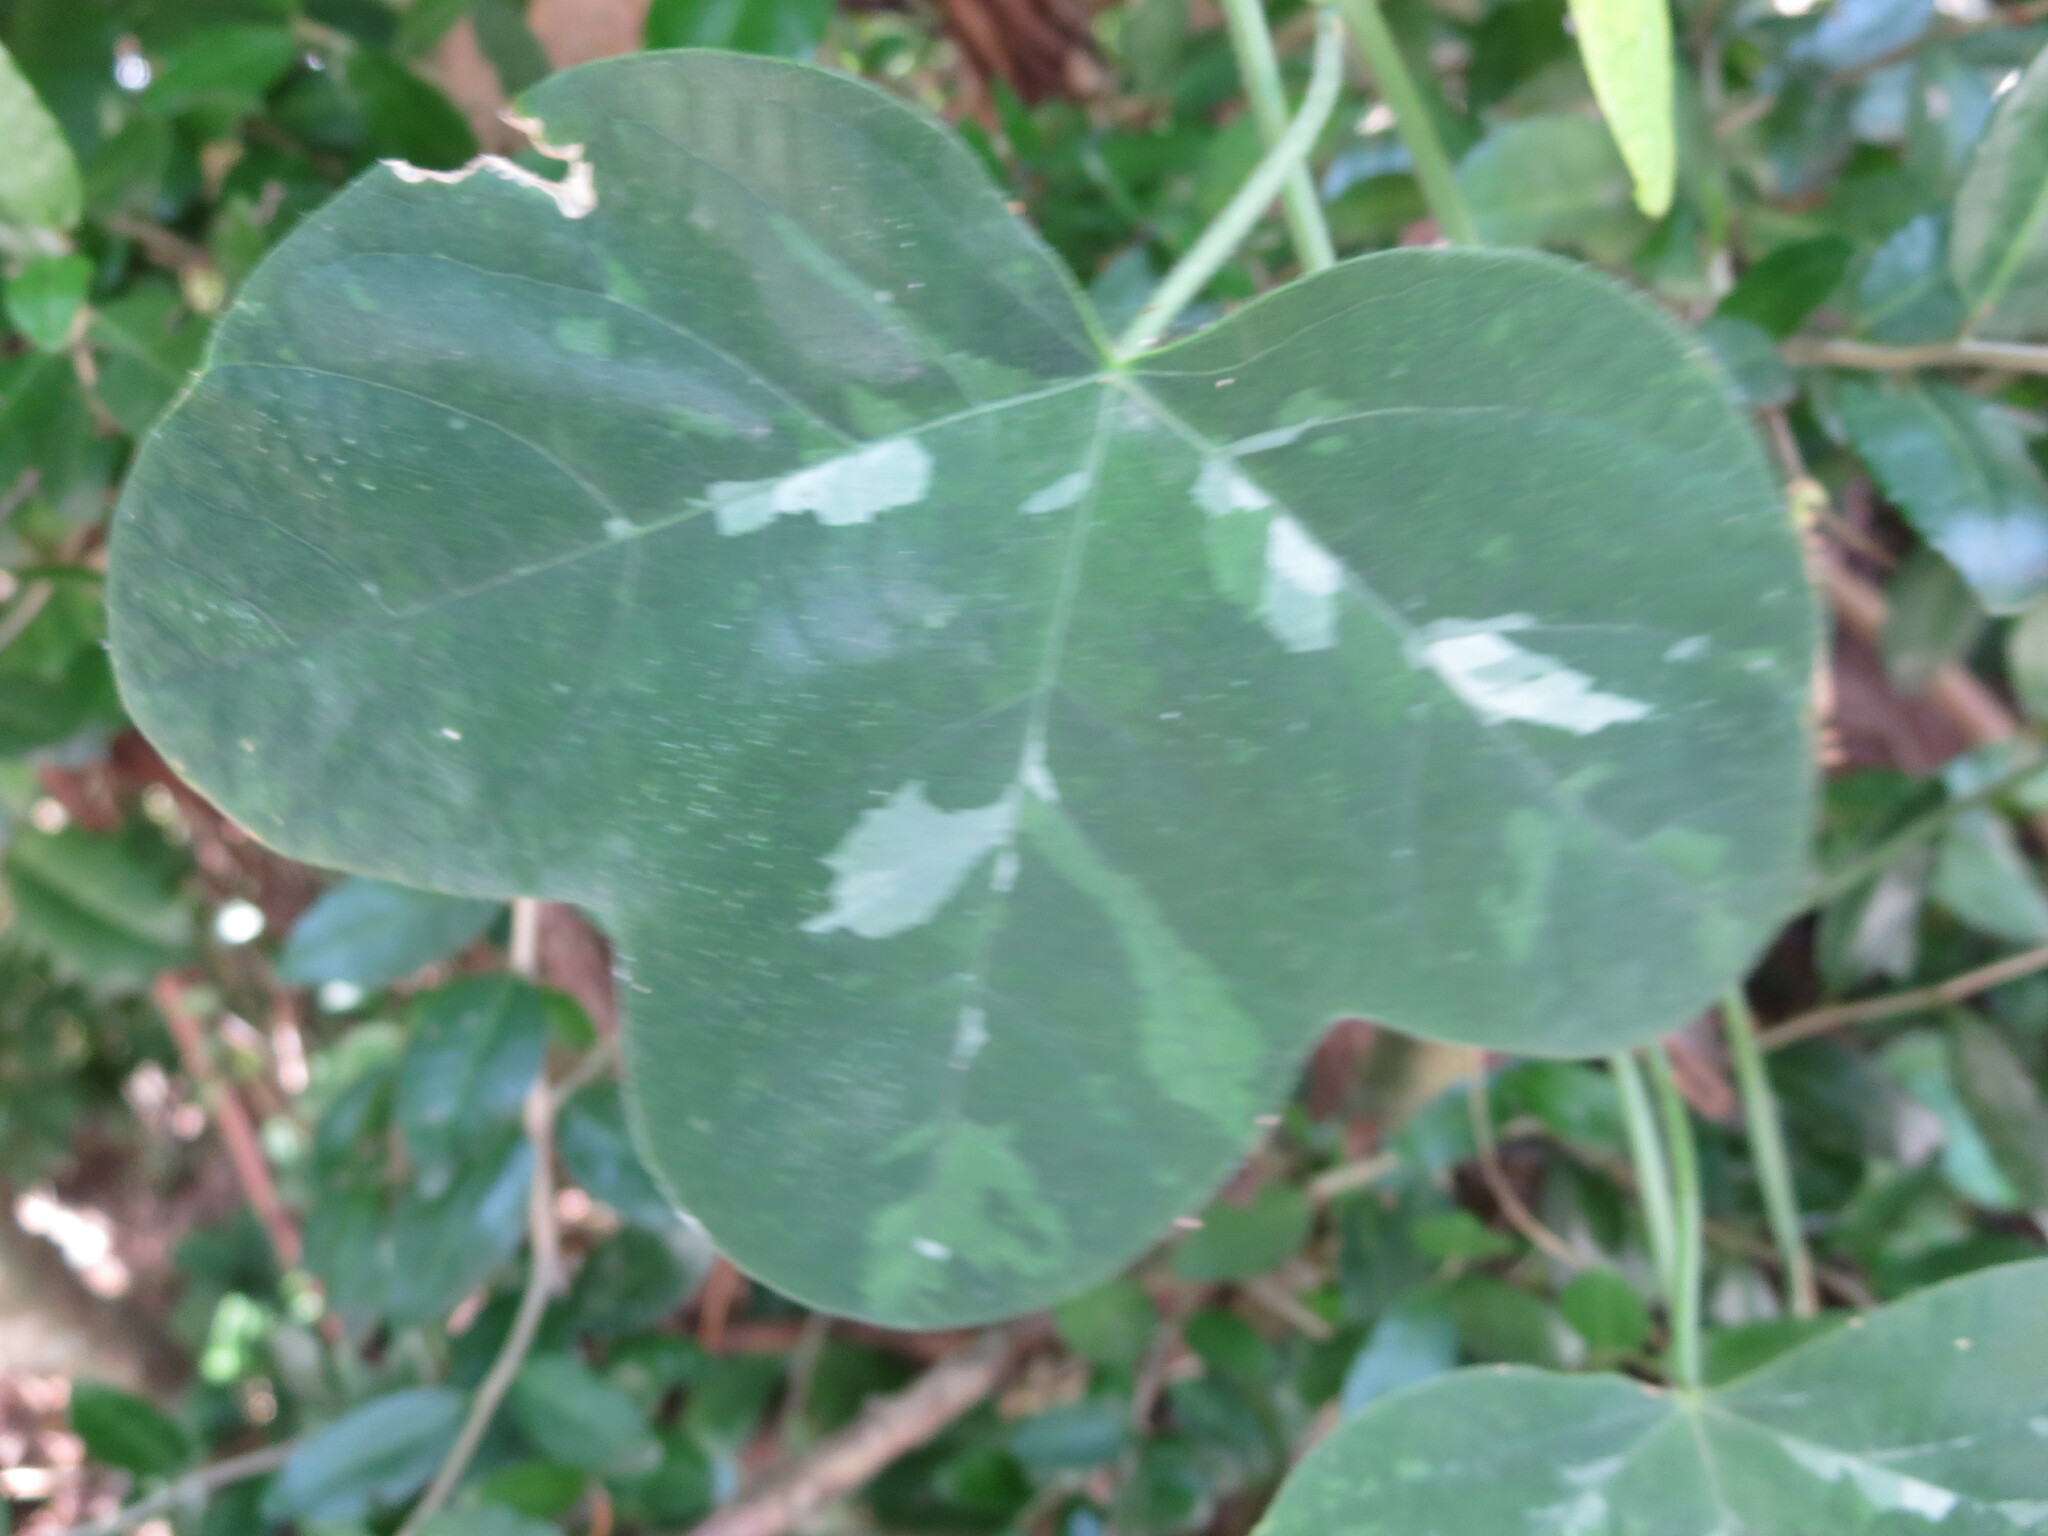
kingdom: Plantae
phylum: Tracheophyta
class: Magnoliopsida
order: Malpighiales
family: Passifloraceae
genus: Passiflora
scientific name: Passiflora lutea
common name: Yellow passionflower
